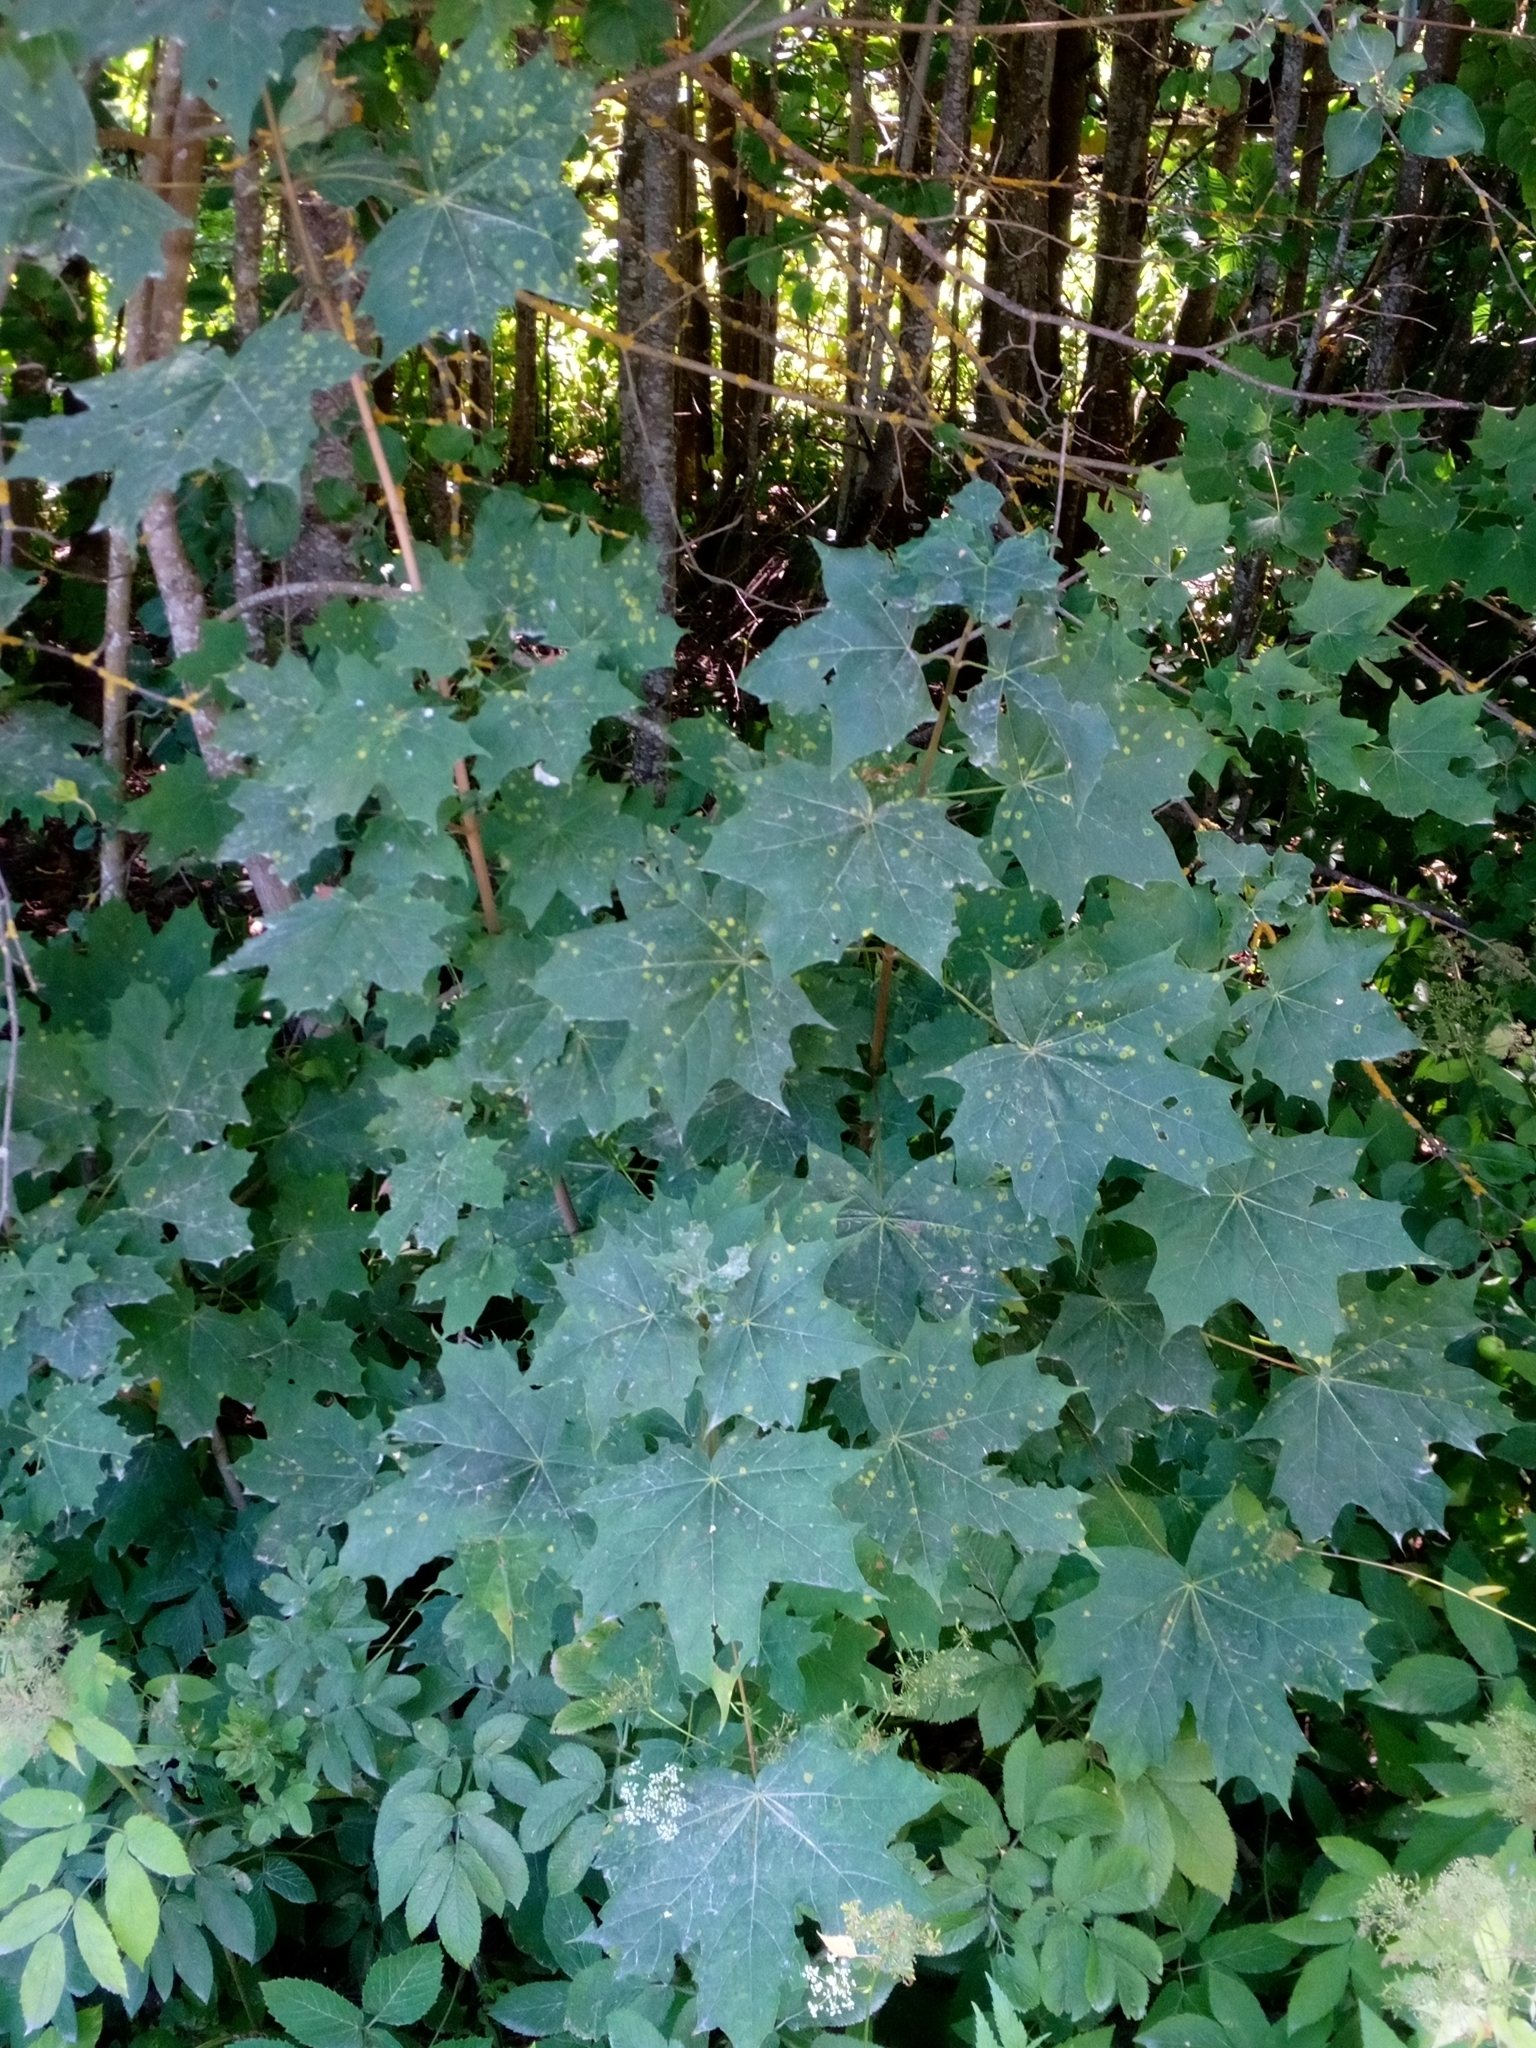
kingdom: Plantae
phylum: Tracheophyta
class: Magnoliopsida
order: Sapindales
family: Sapindaceae
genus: Acer
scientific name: Acer platanoides
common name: Norway maple
